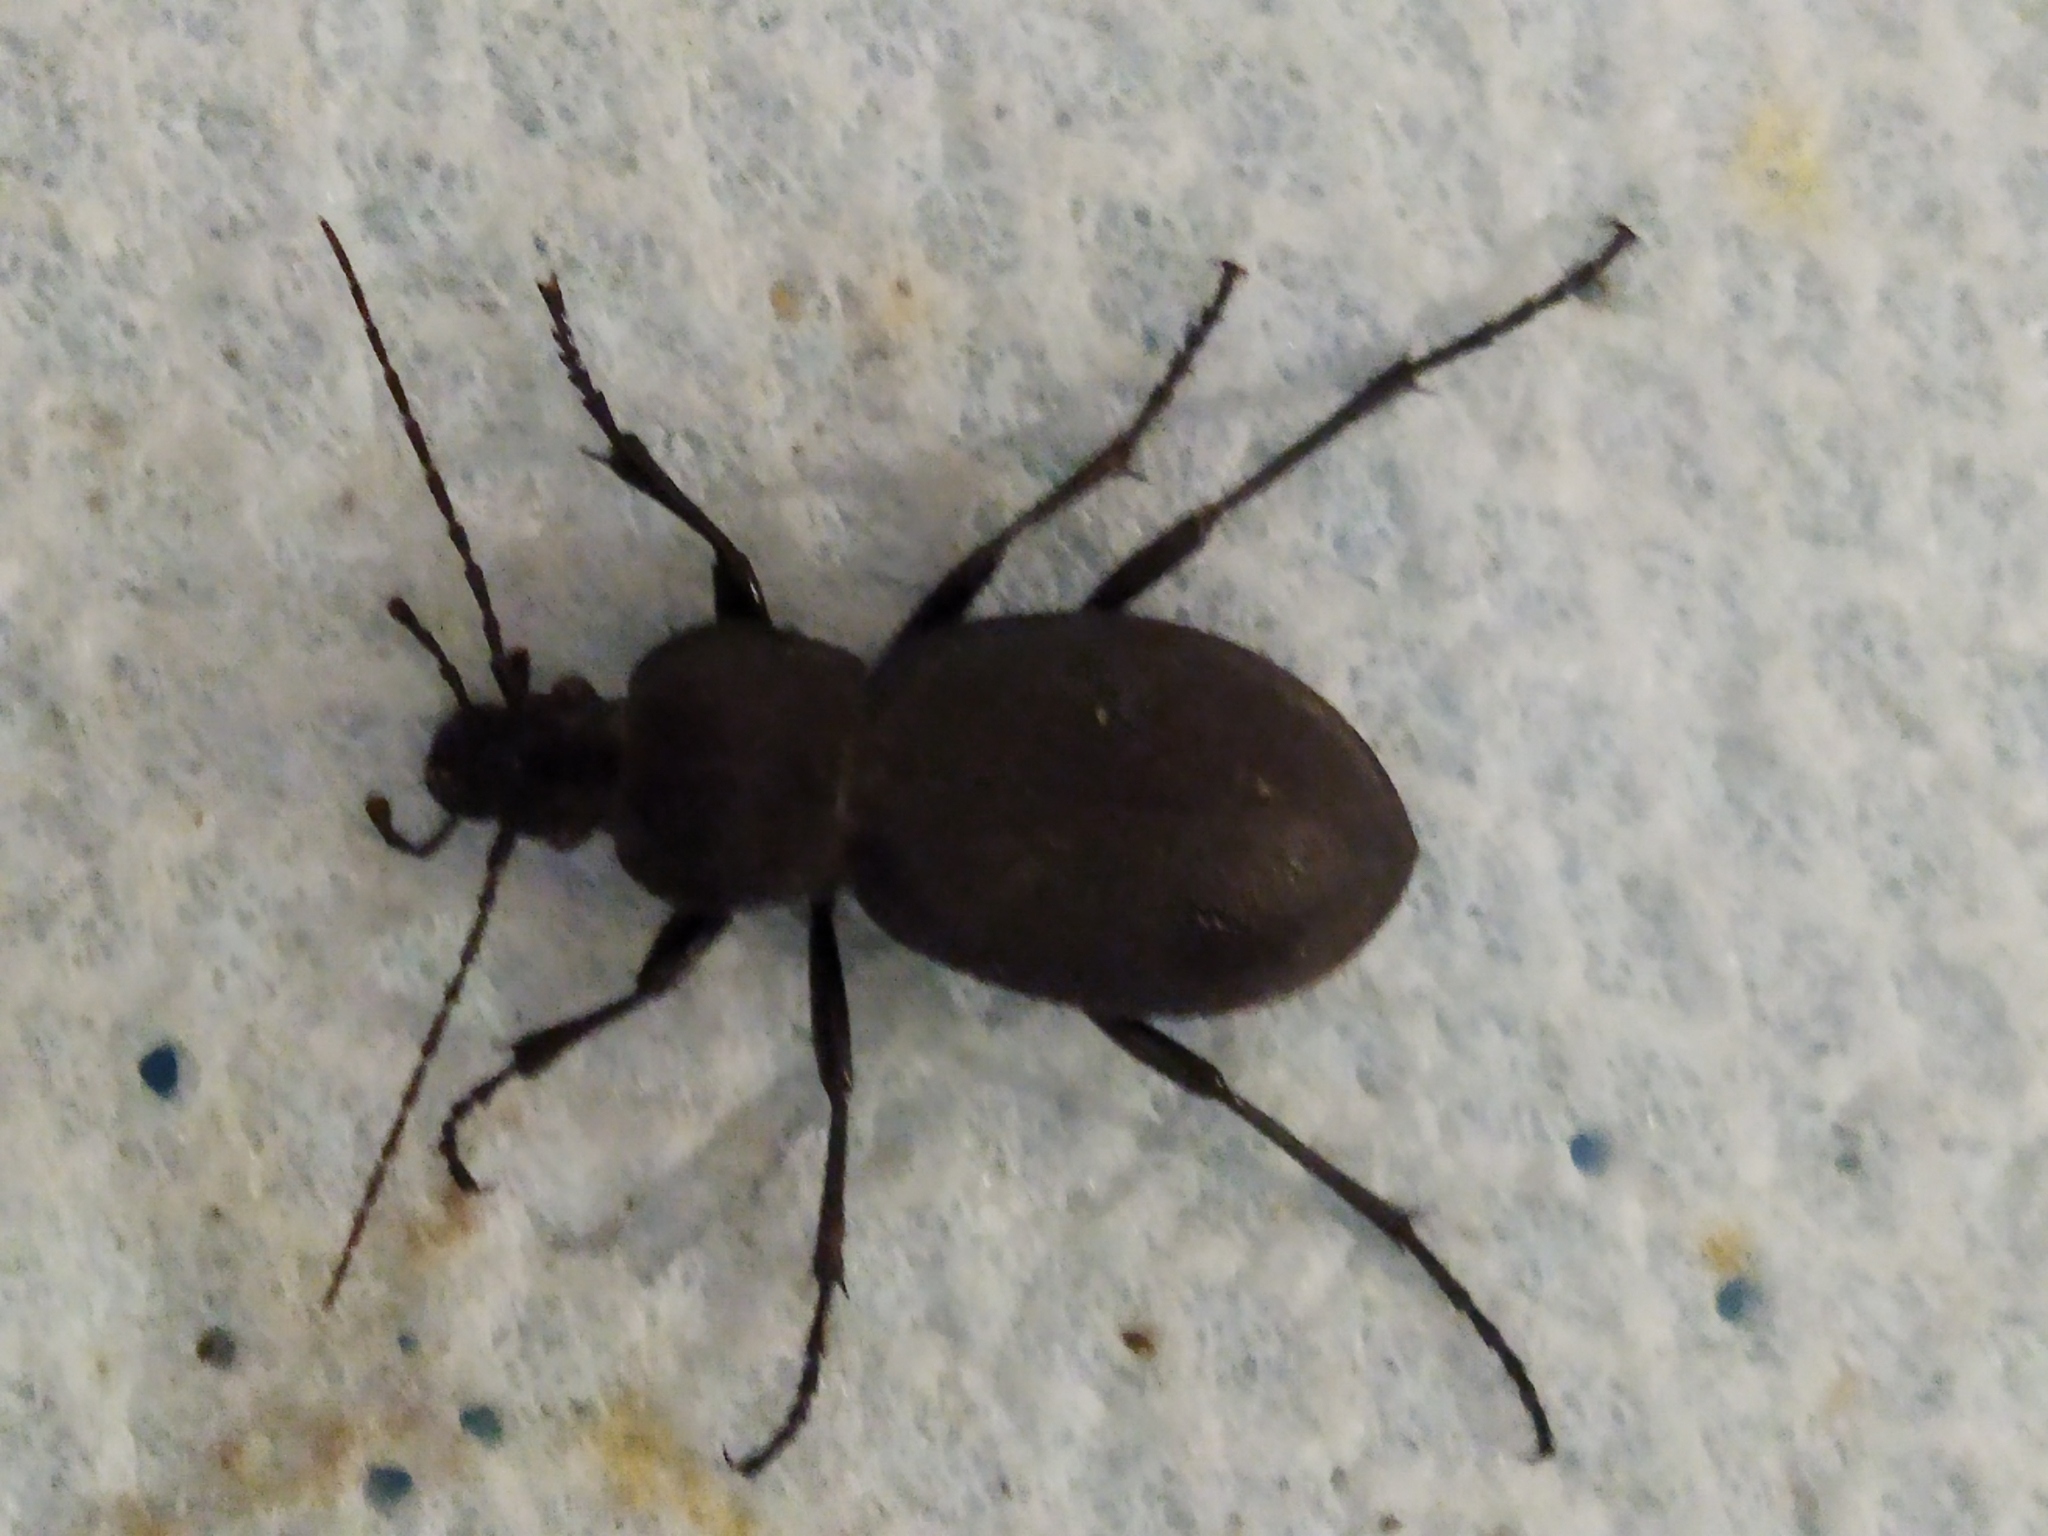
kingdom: Animalia
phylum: Arthropoda
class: Insecta
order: Coleoptera
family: Carabidae
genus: Carabus
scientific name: Carabus coriaceus
